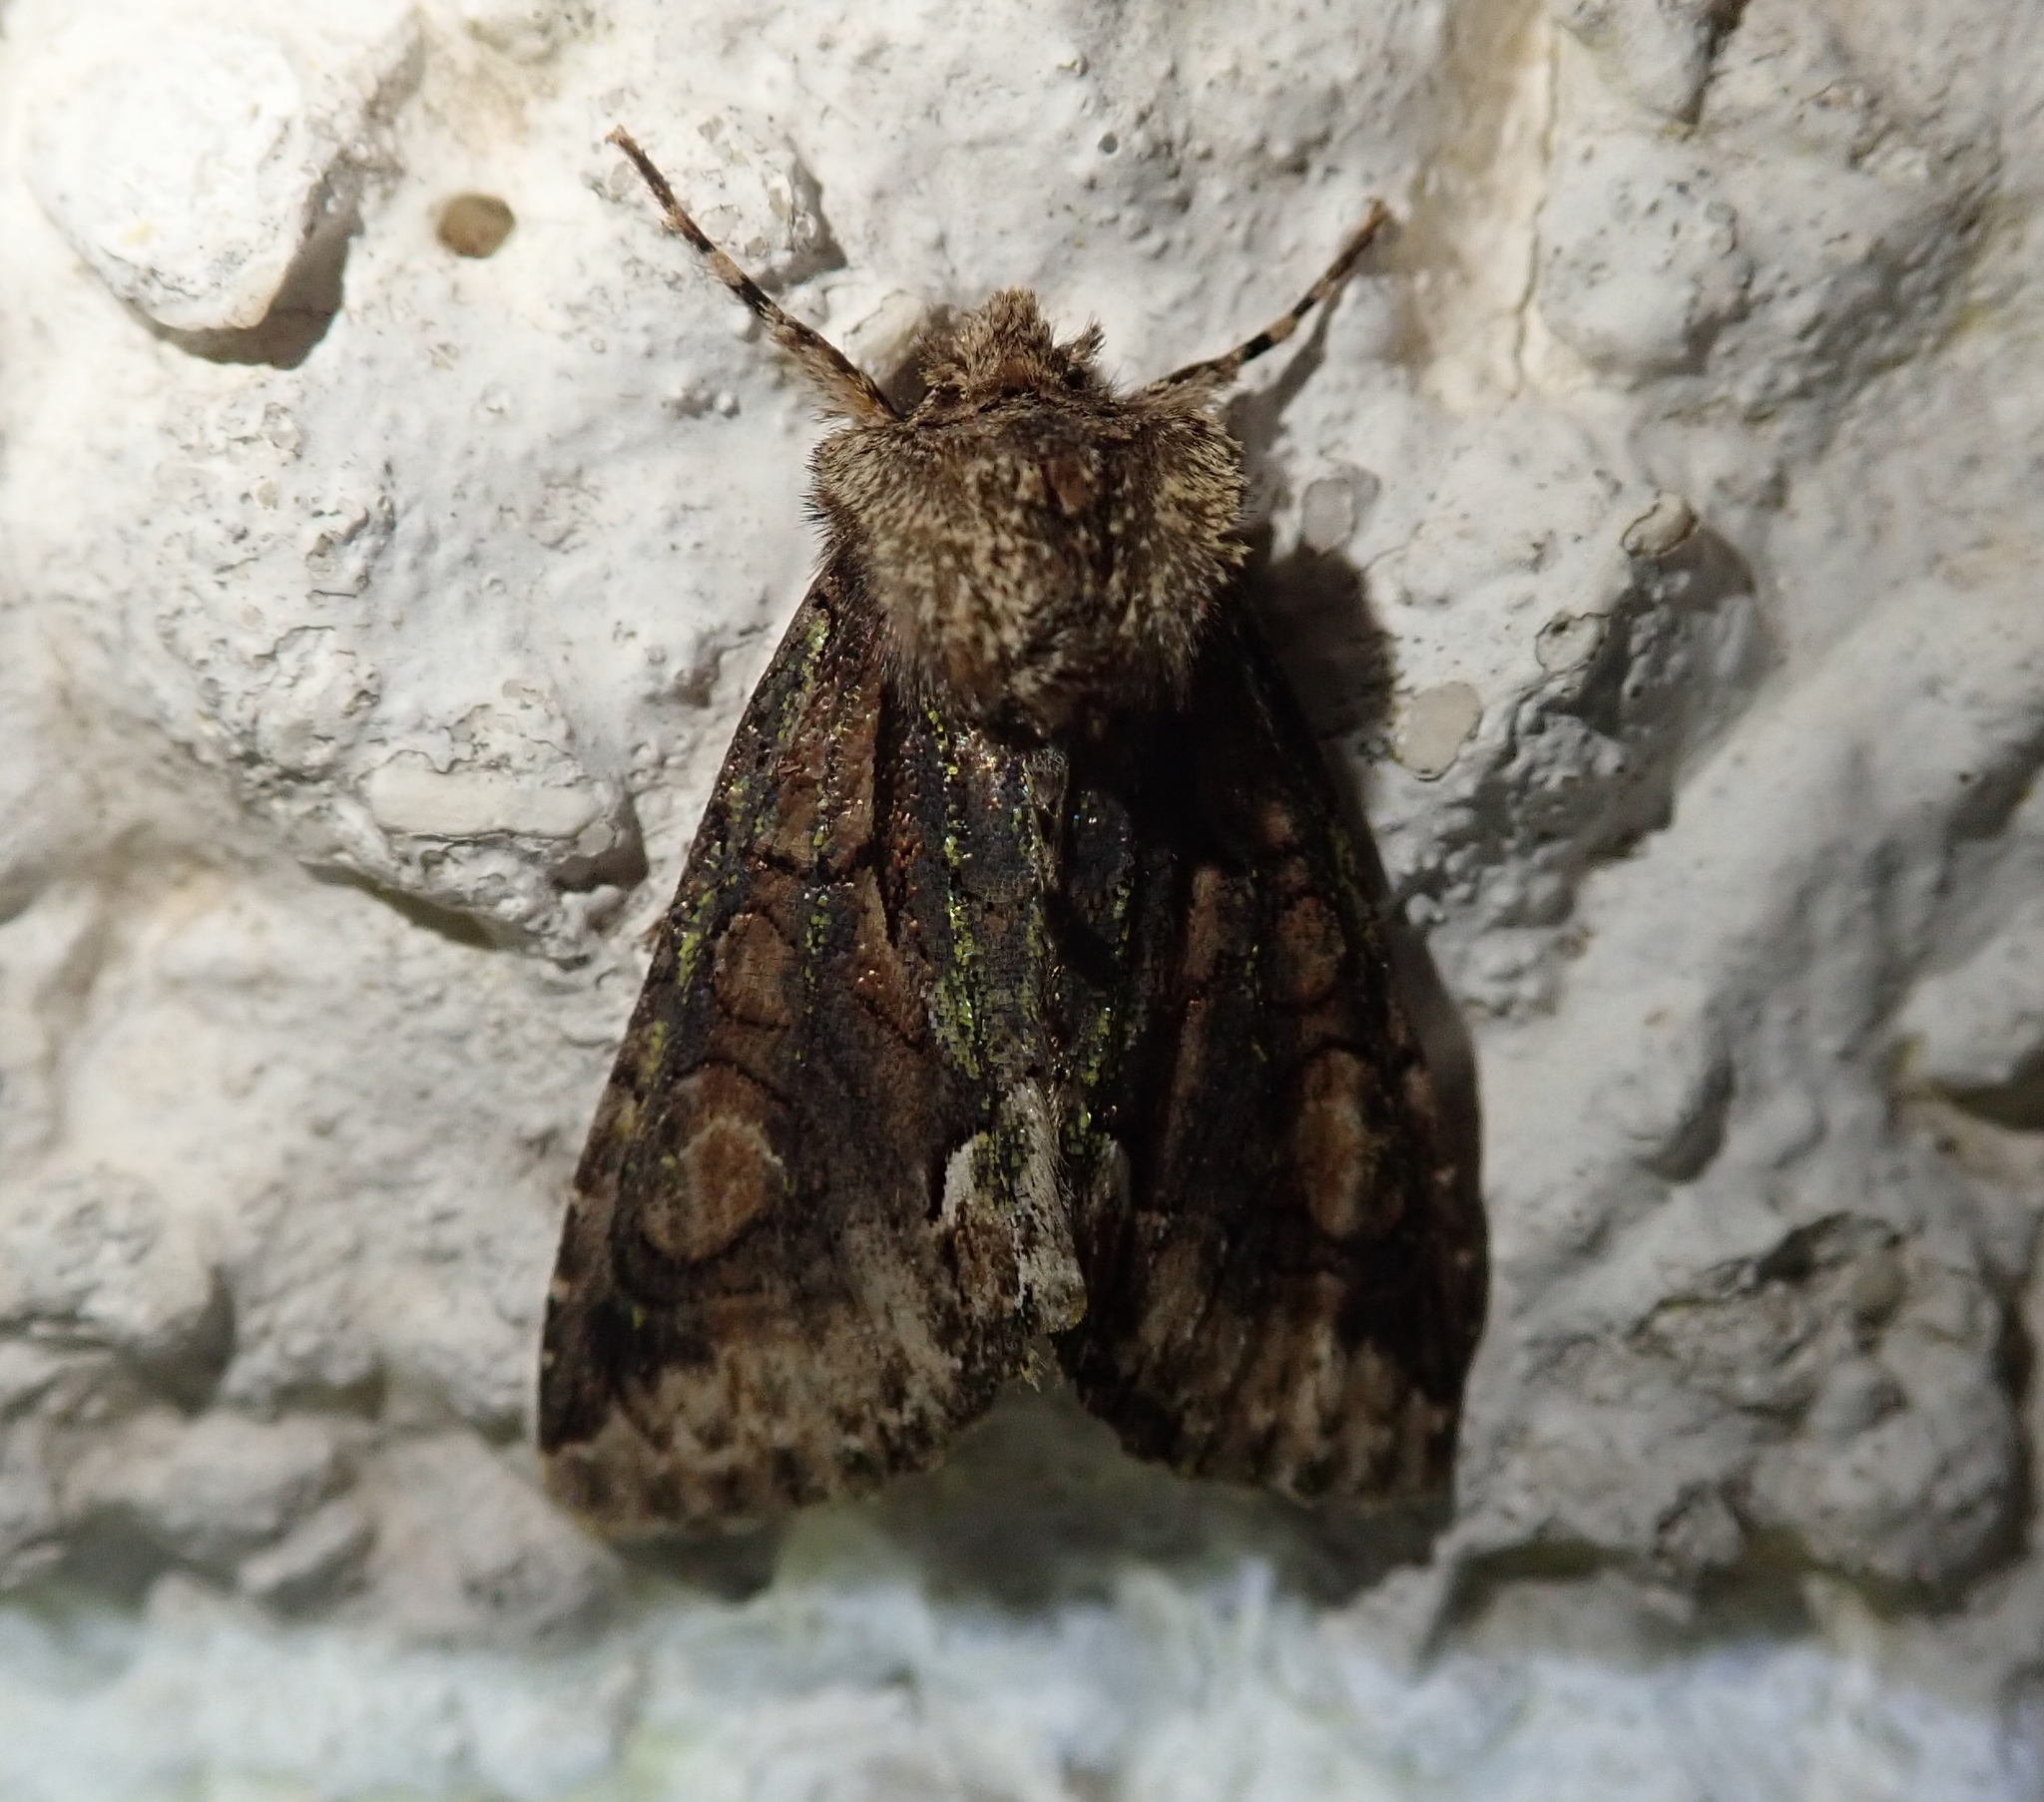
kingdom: Animalia
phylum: Arthropoda
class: Insecta
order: Lepidoptera
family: Noctuidae
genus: Allophyes
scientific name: Allophyes oxyacanthae
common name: Green-brindled crescent
